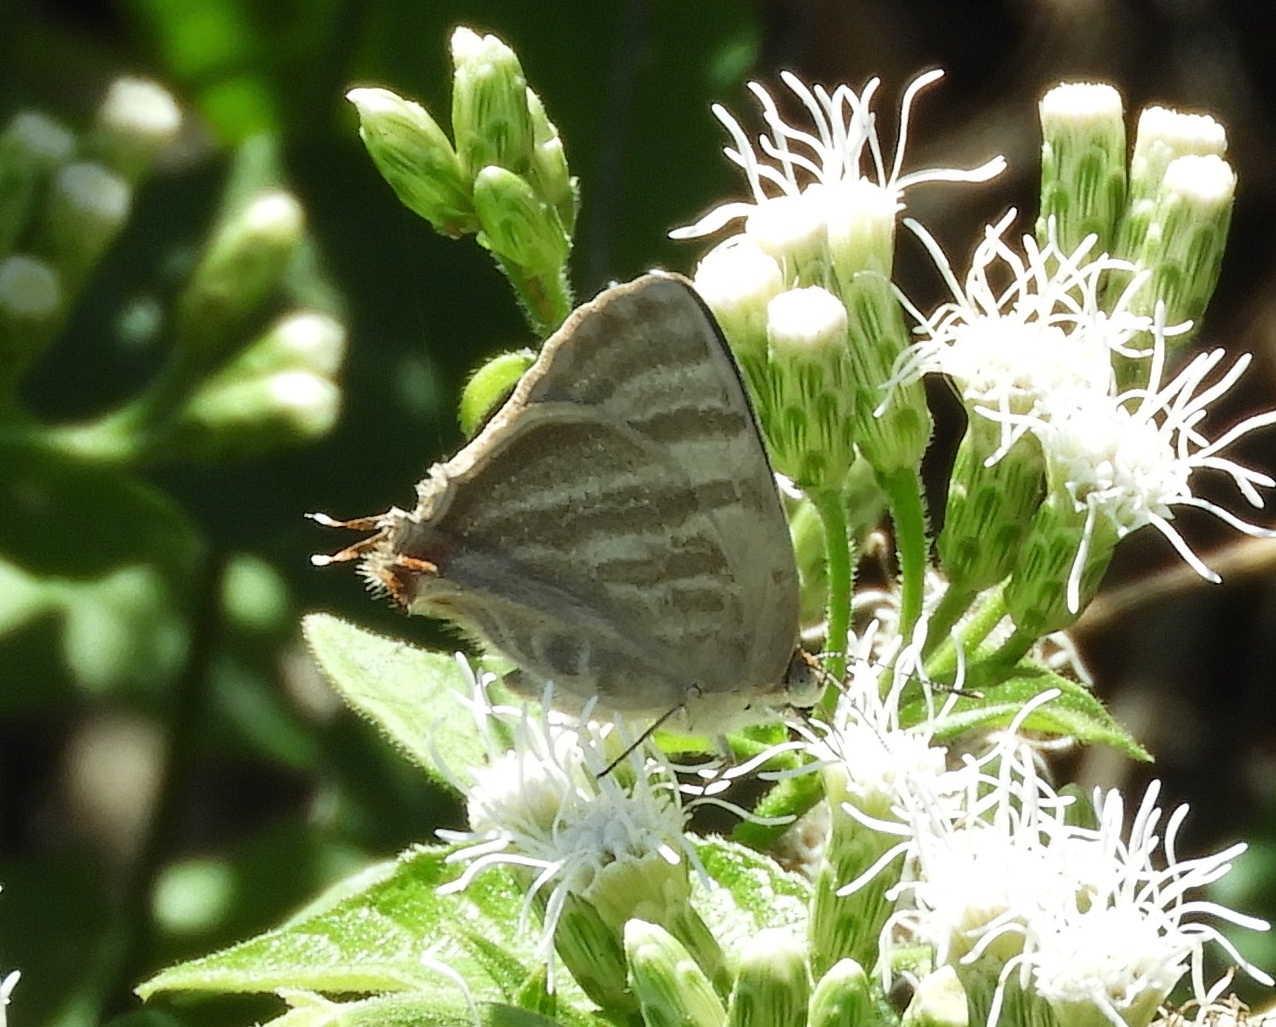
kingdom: Animalia
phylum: Arthropoda
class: Insecta
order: Lepidoptera
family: Lycaenidae
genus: Dolymorpha
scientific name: Dolymorpha jada
